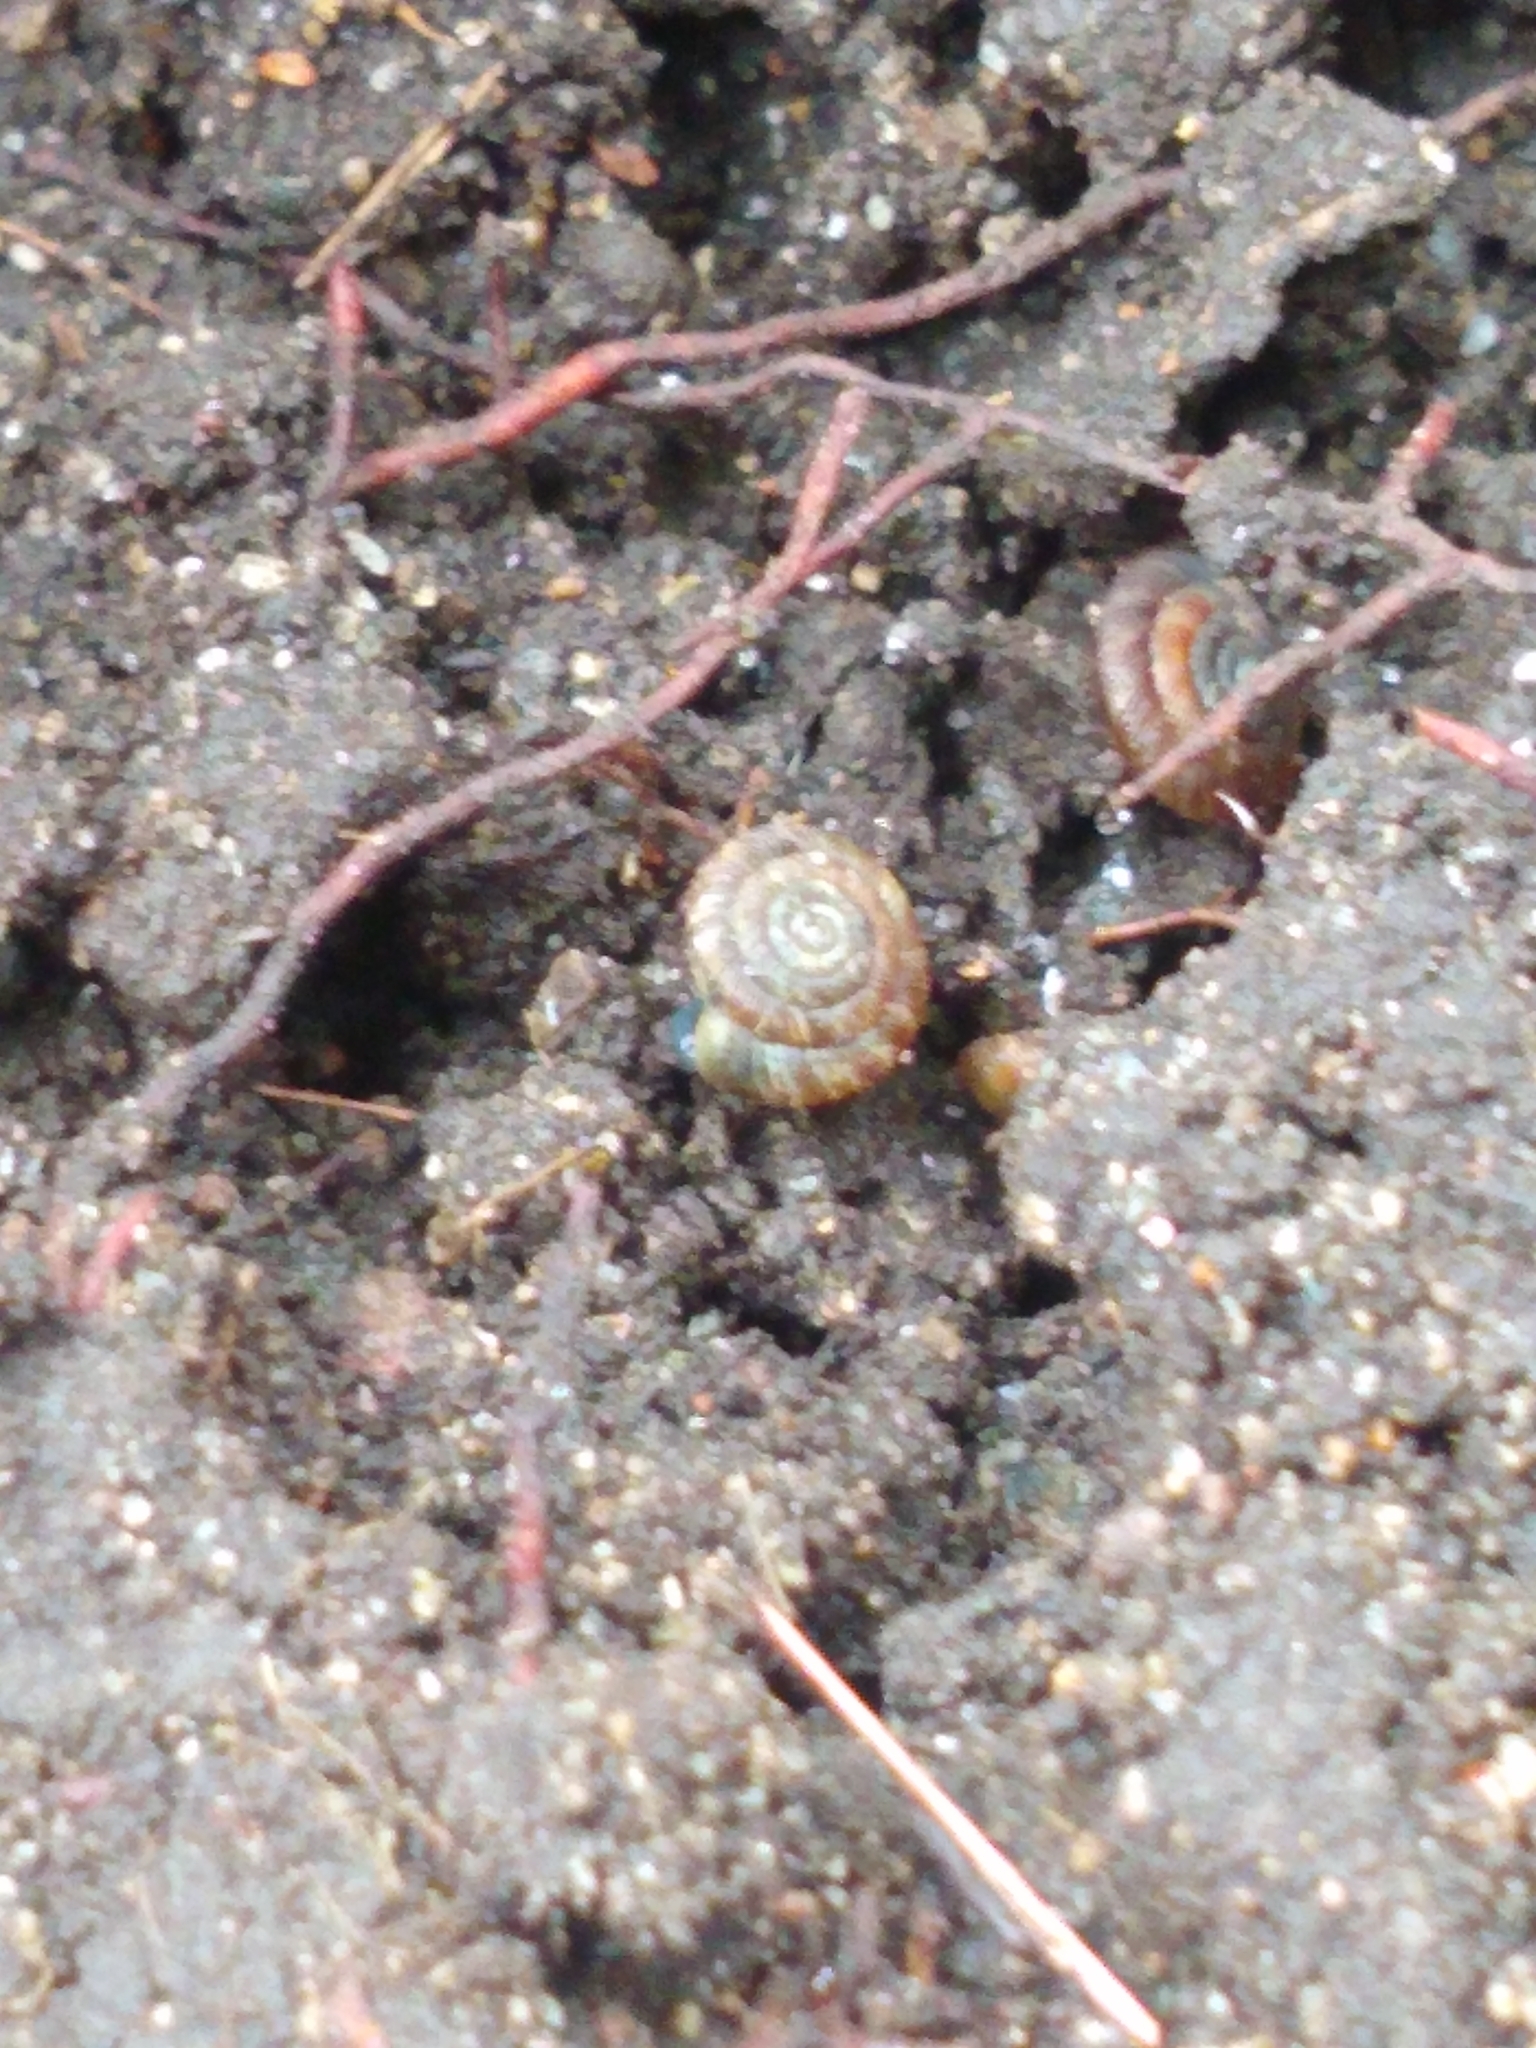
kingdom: Animalia
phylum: Mollusca
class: Gastropoda
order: Stylommatophora
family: Discidae
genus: Discus
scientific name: Discus rotundatus
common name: Rounded snail
